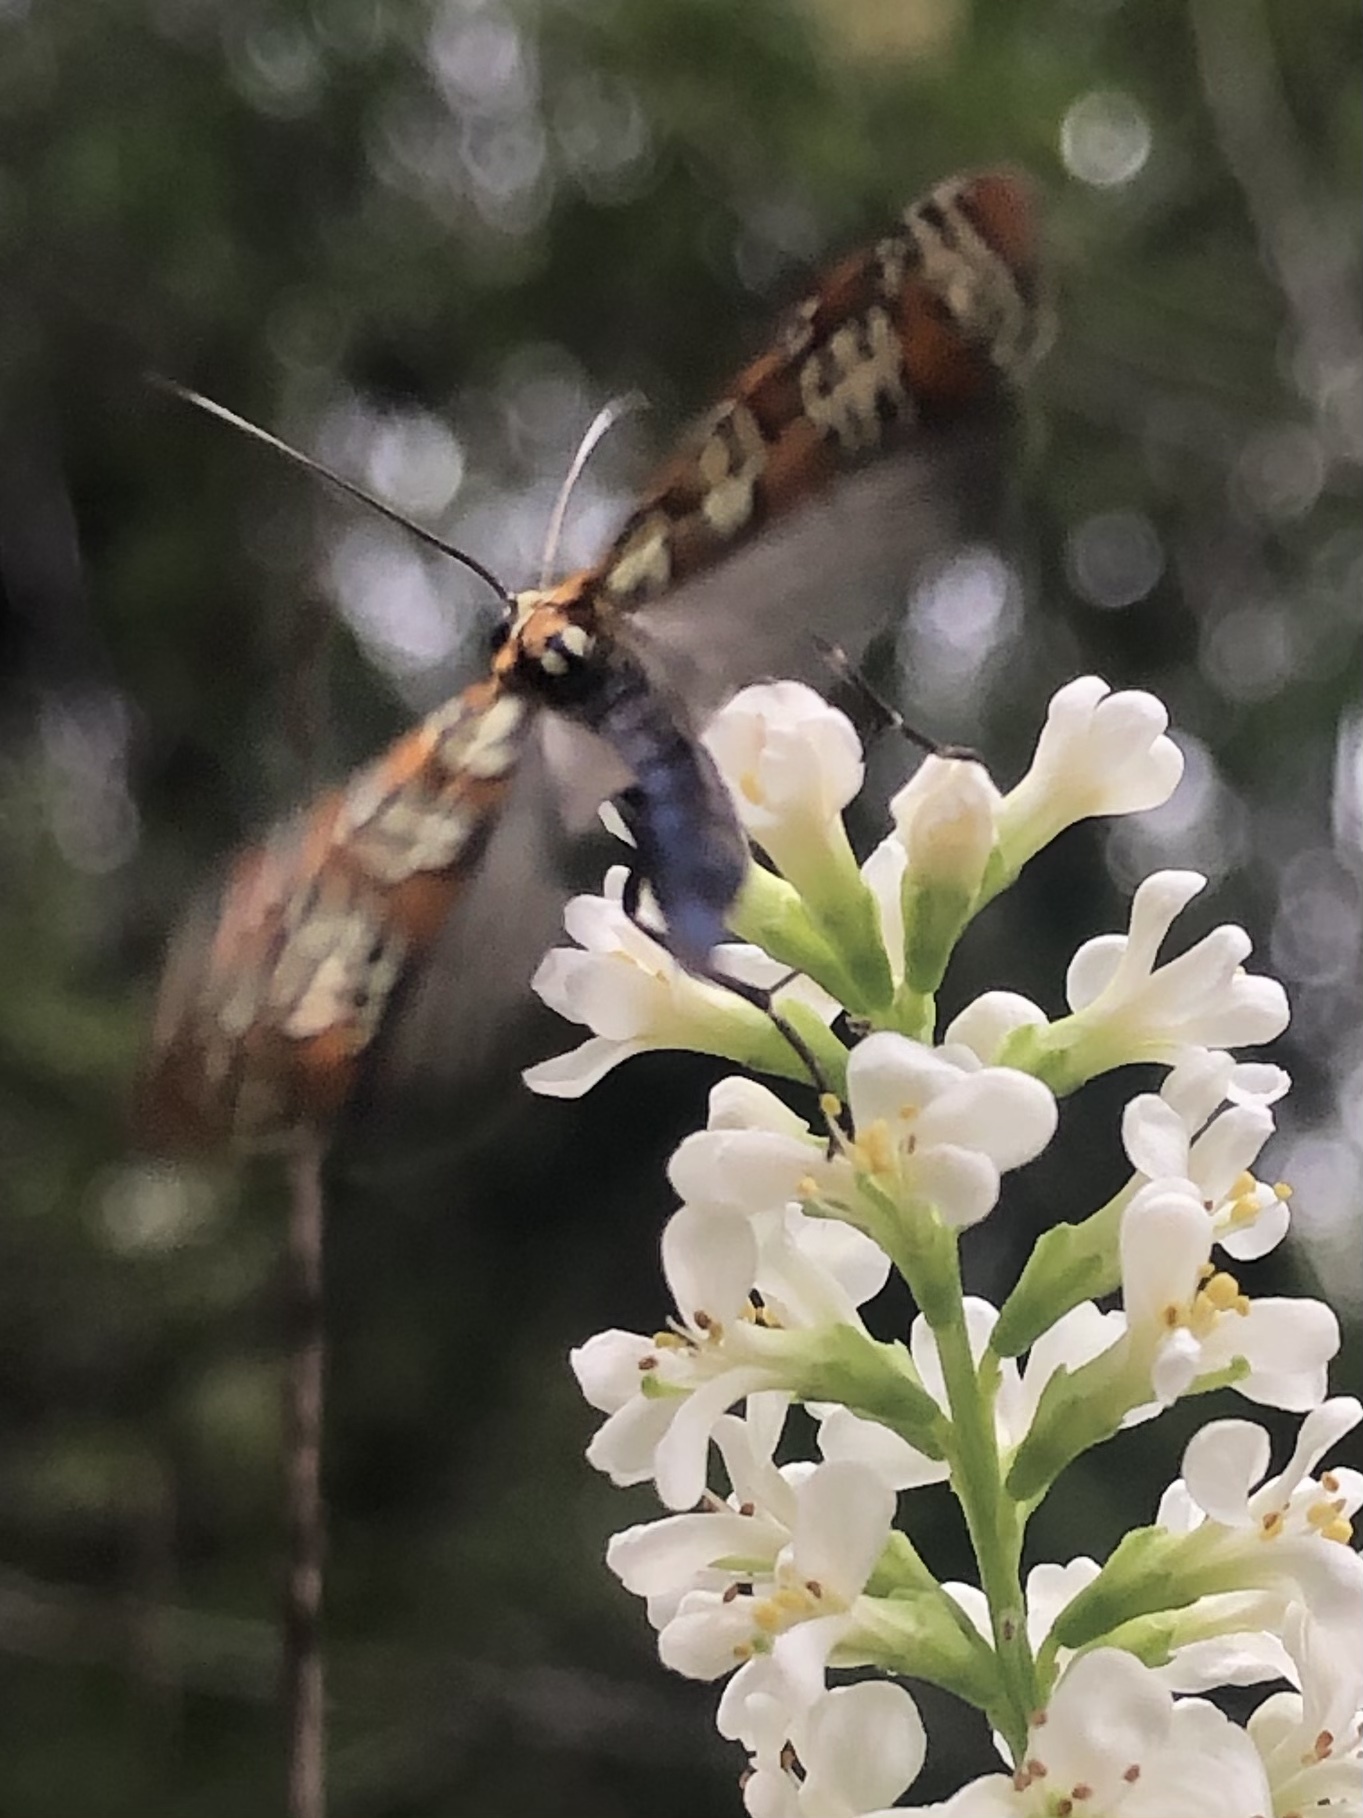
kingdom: Animalia
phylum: Arthropoda
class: Insecta
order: Lepidoptera
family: Attevidae
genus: Atteva
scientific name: Atteva punctella
